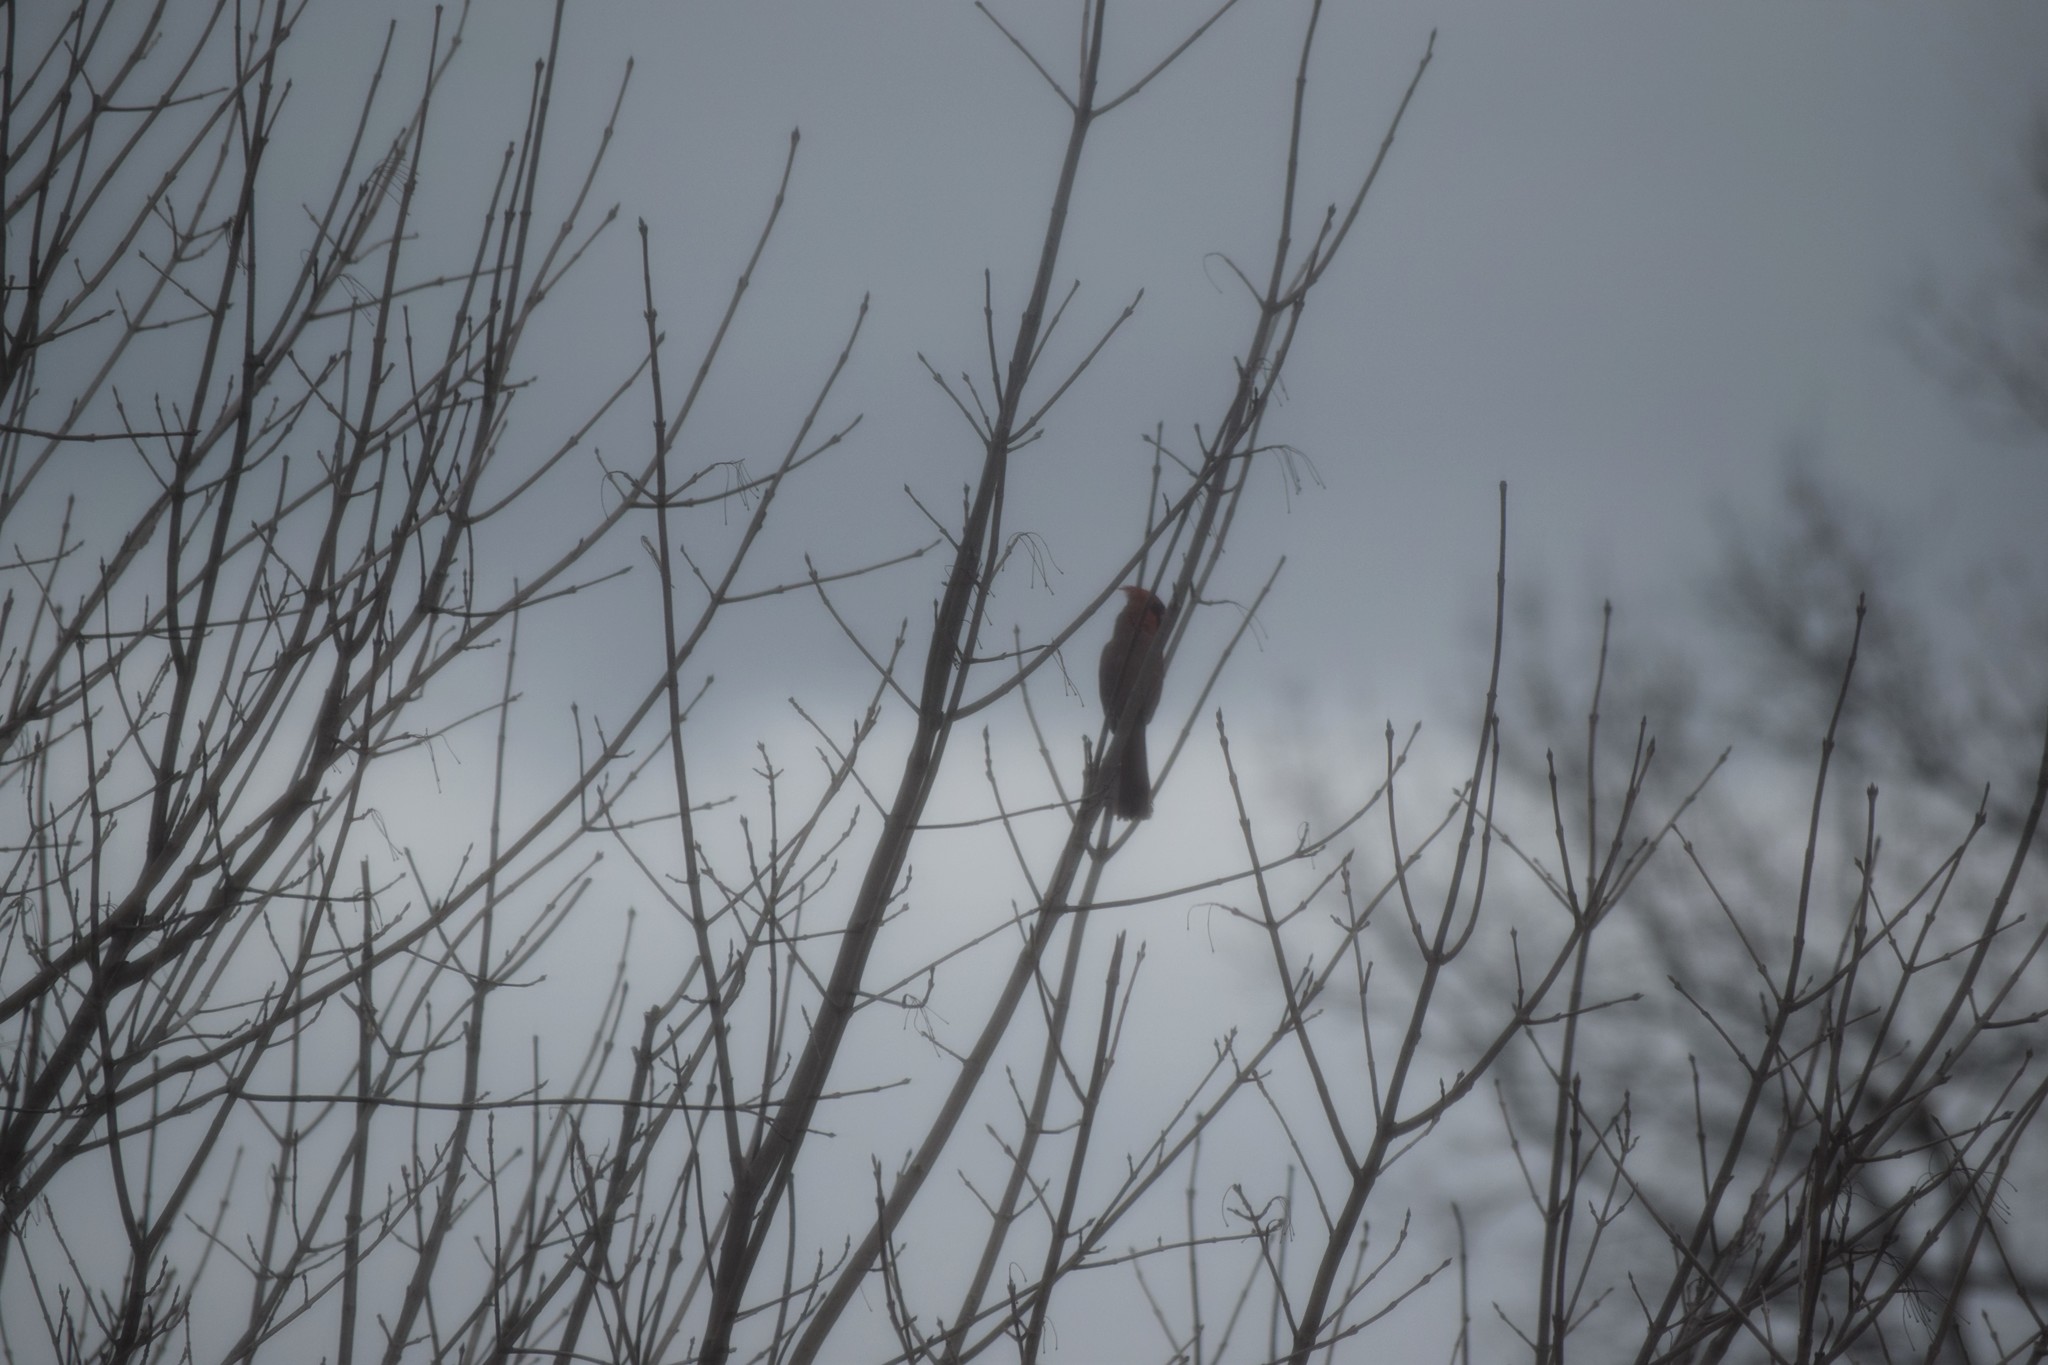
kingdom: Animalia
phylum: Chordata
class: Aves
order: Passeriformes
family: Cardinalidae
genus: Cardinalis
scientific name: Cardinalis cardinalis
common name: Northern cardinal
